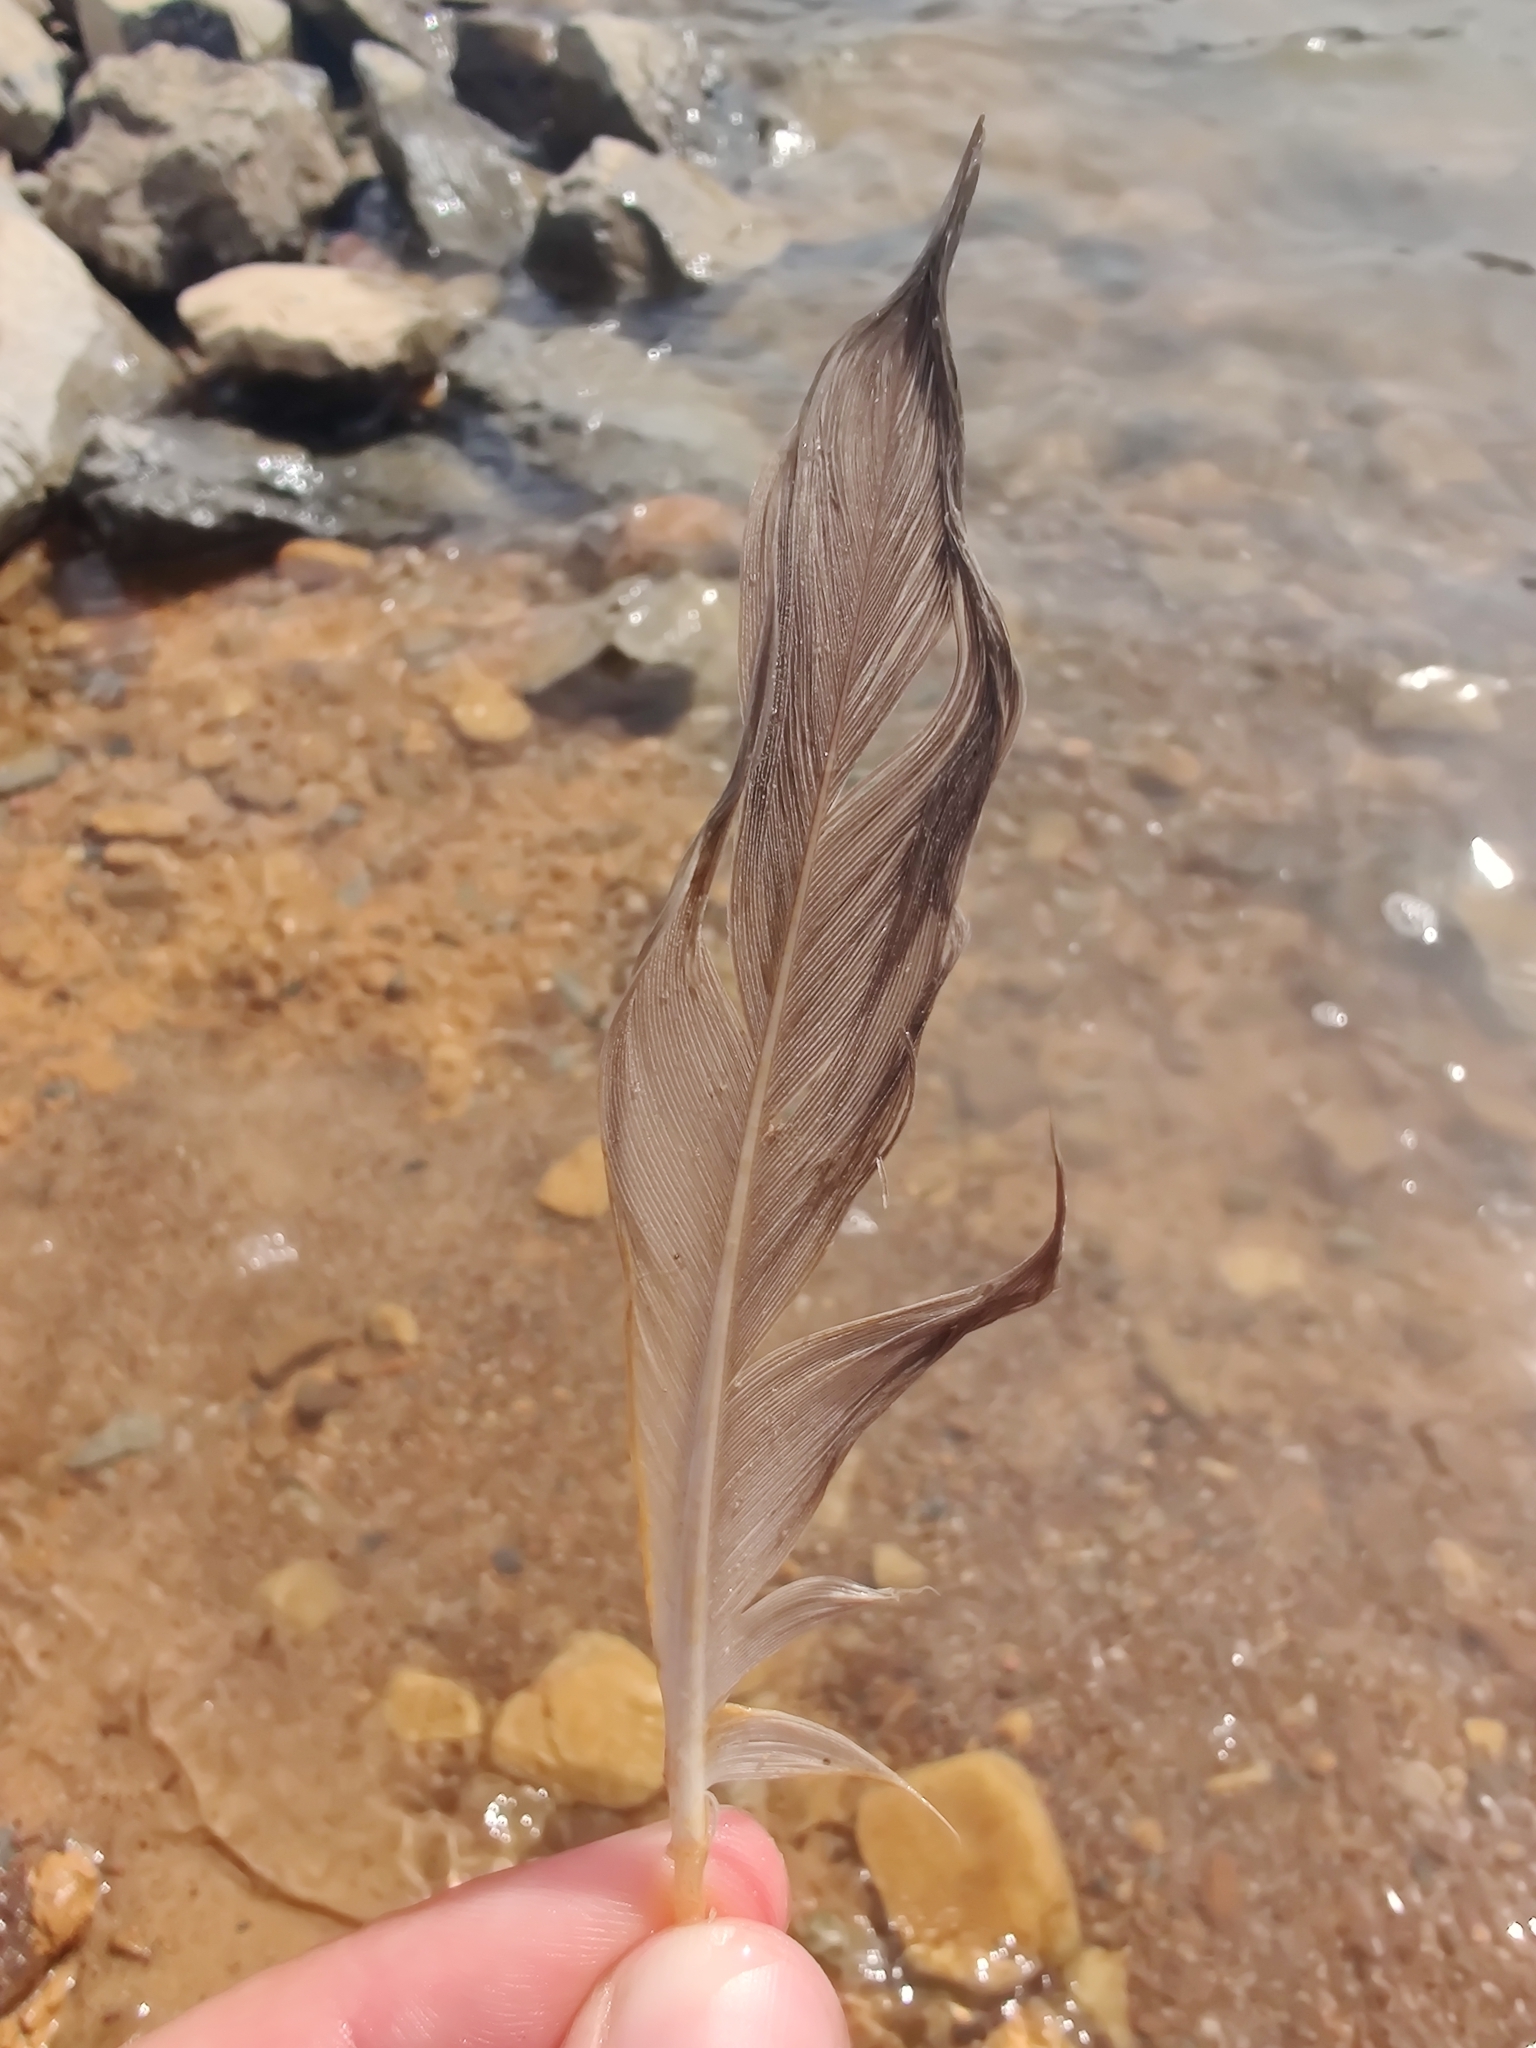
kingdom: Animalia
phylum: Chordata
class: Aves
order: Anseriformes
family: Anatidae
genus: Branta
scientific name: Branta canadensis
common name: Canada goose
